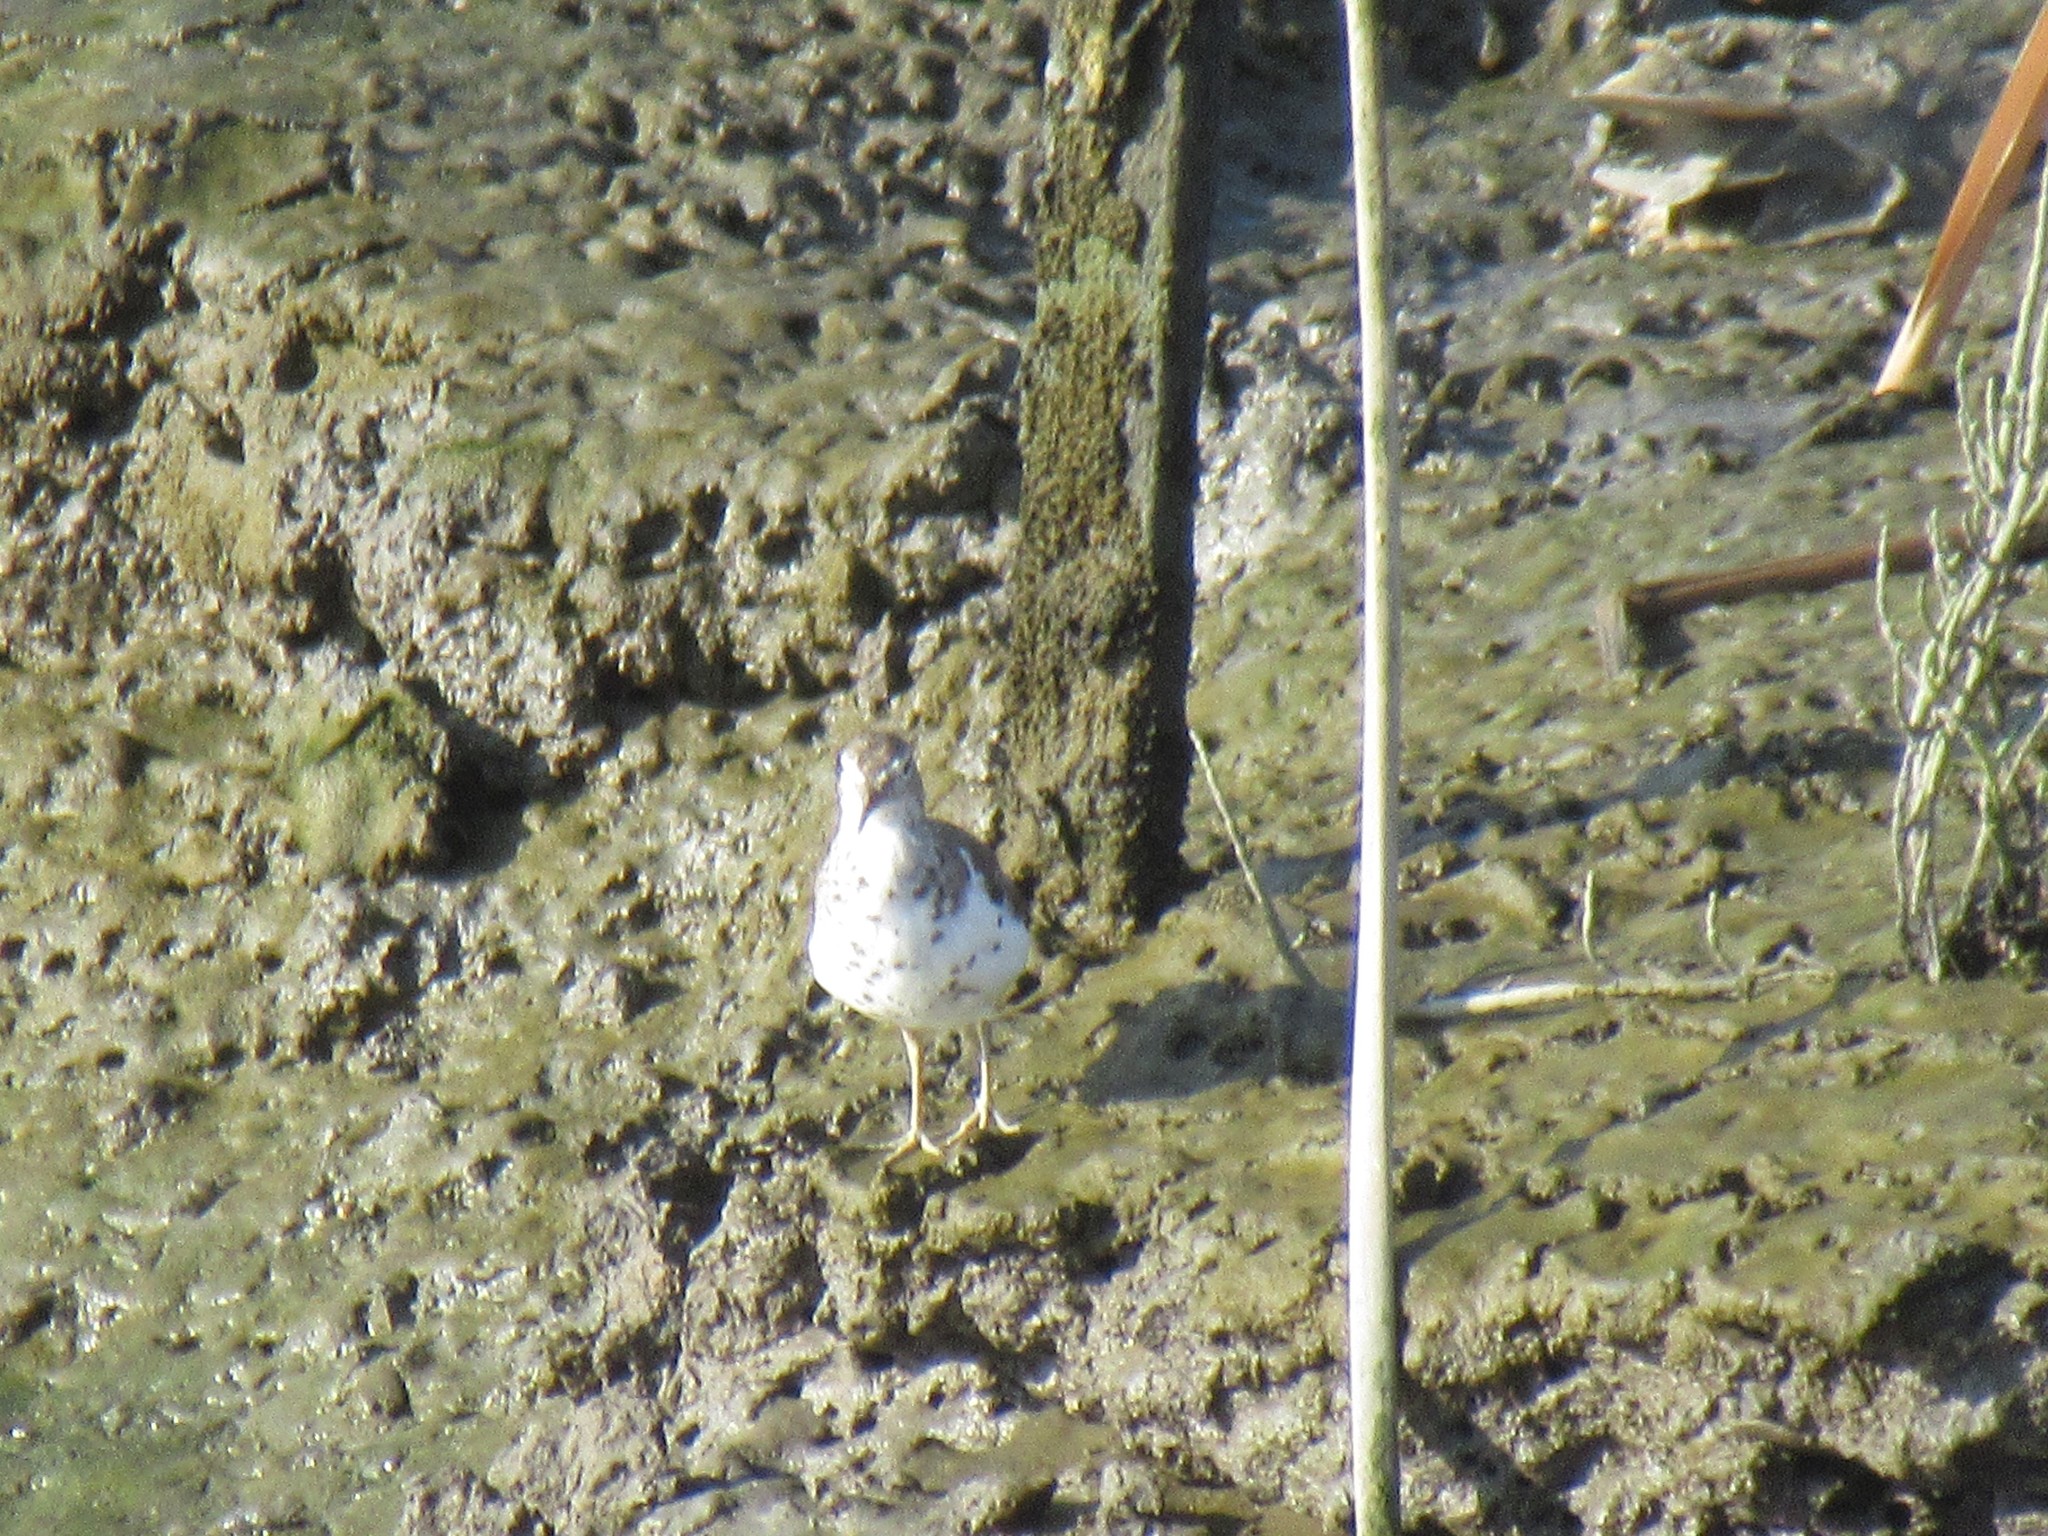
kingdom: Animalia
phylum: Chordata
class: Aves
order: Charadriiformes
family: Scolopacidae
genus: Actitis
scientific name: Actitis macularius
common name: Spotted sandpiper
